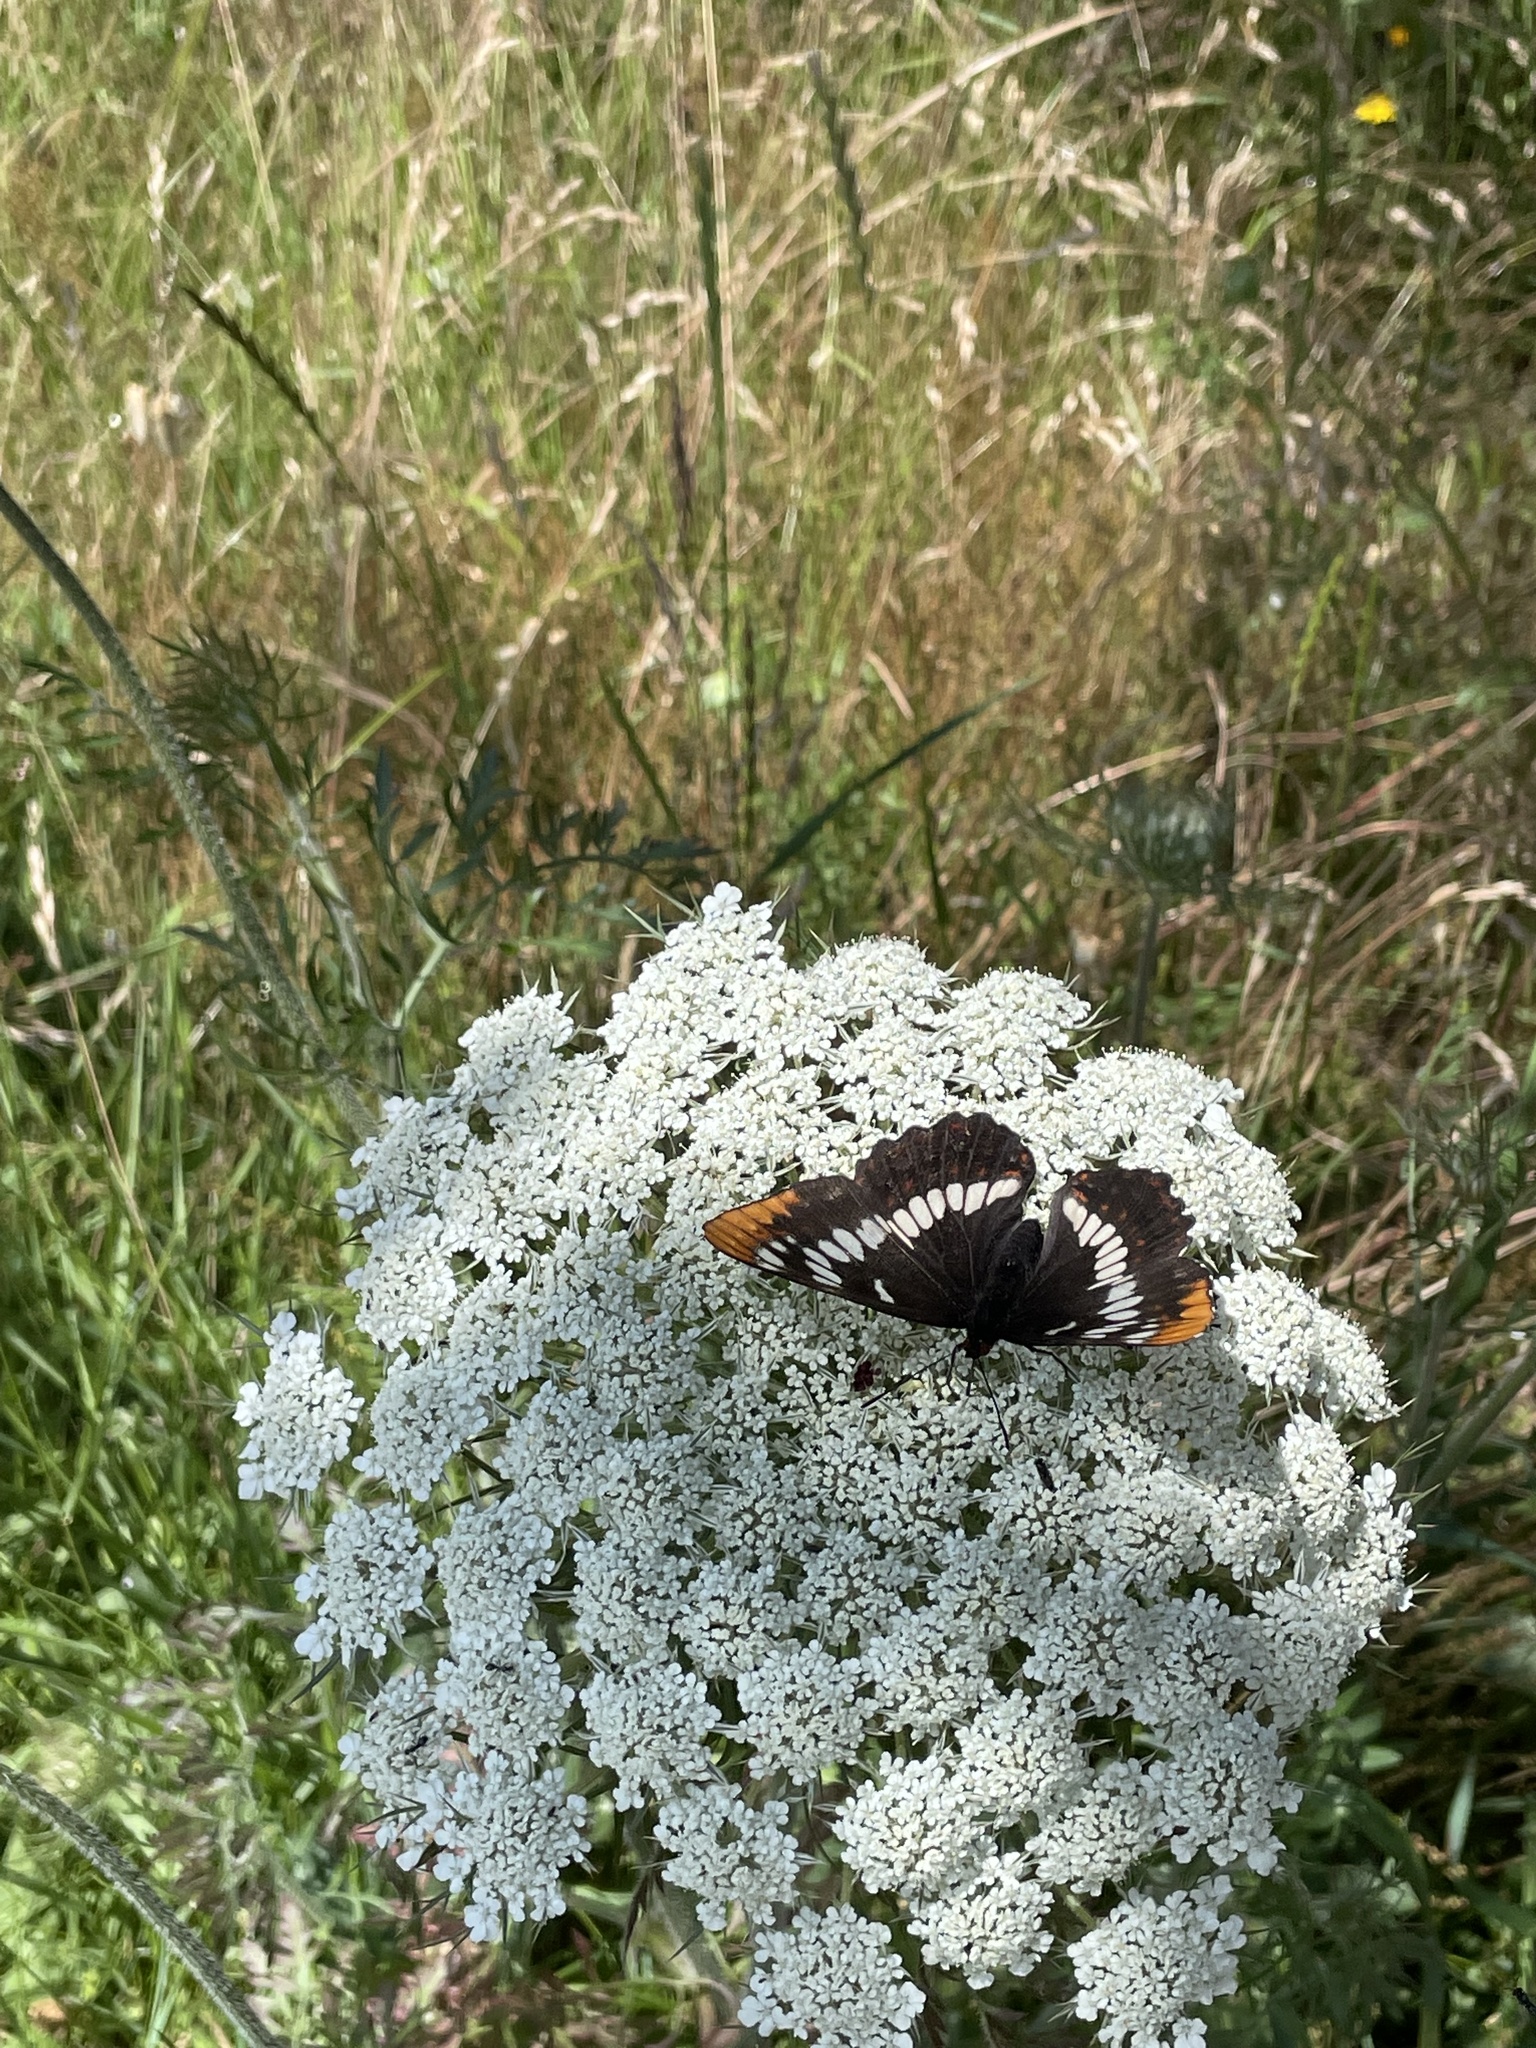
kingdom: Animalia
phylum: Arthropoda
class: Insecta
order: Lepidoptera
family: Nymphalidae
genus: Limenitis
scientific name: Limenitis lorquini
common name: Lorquin's admiral
